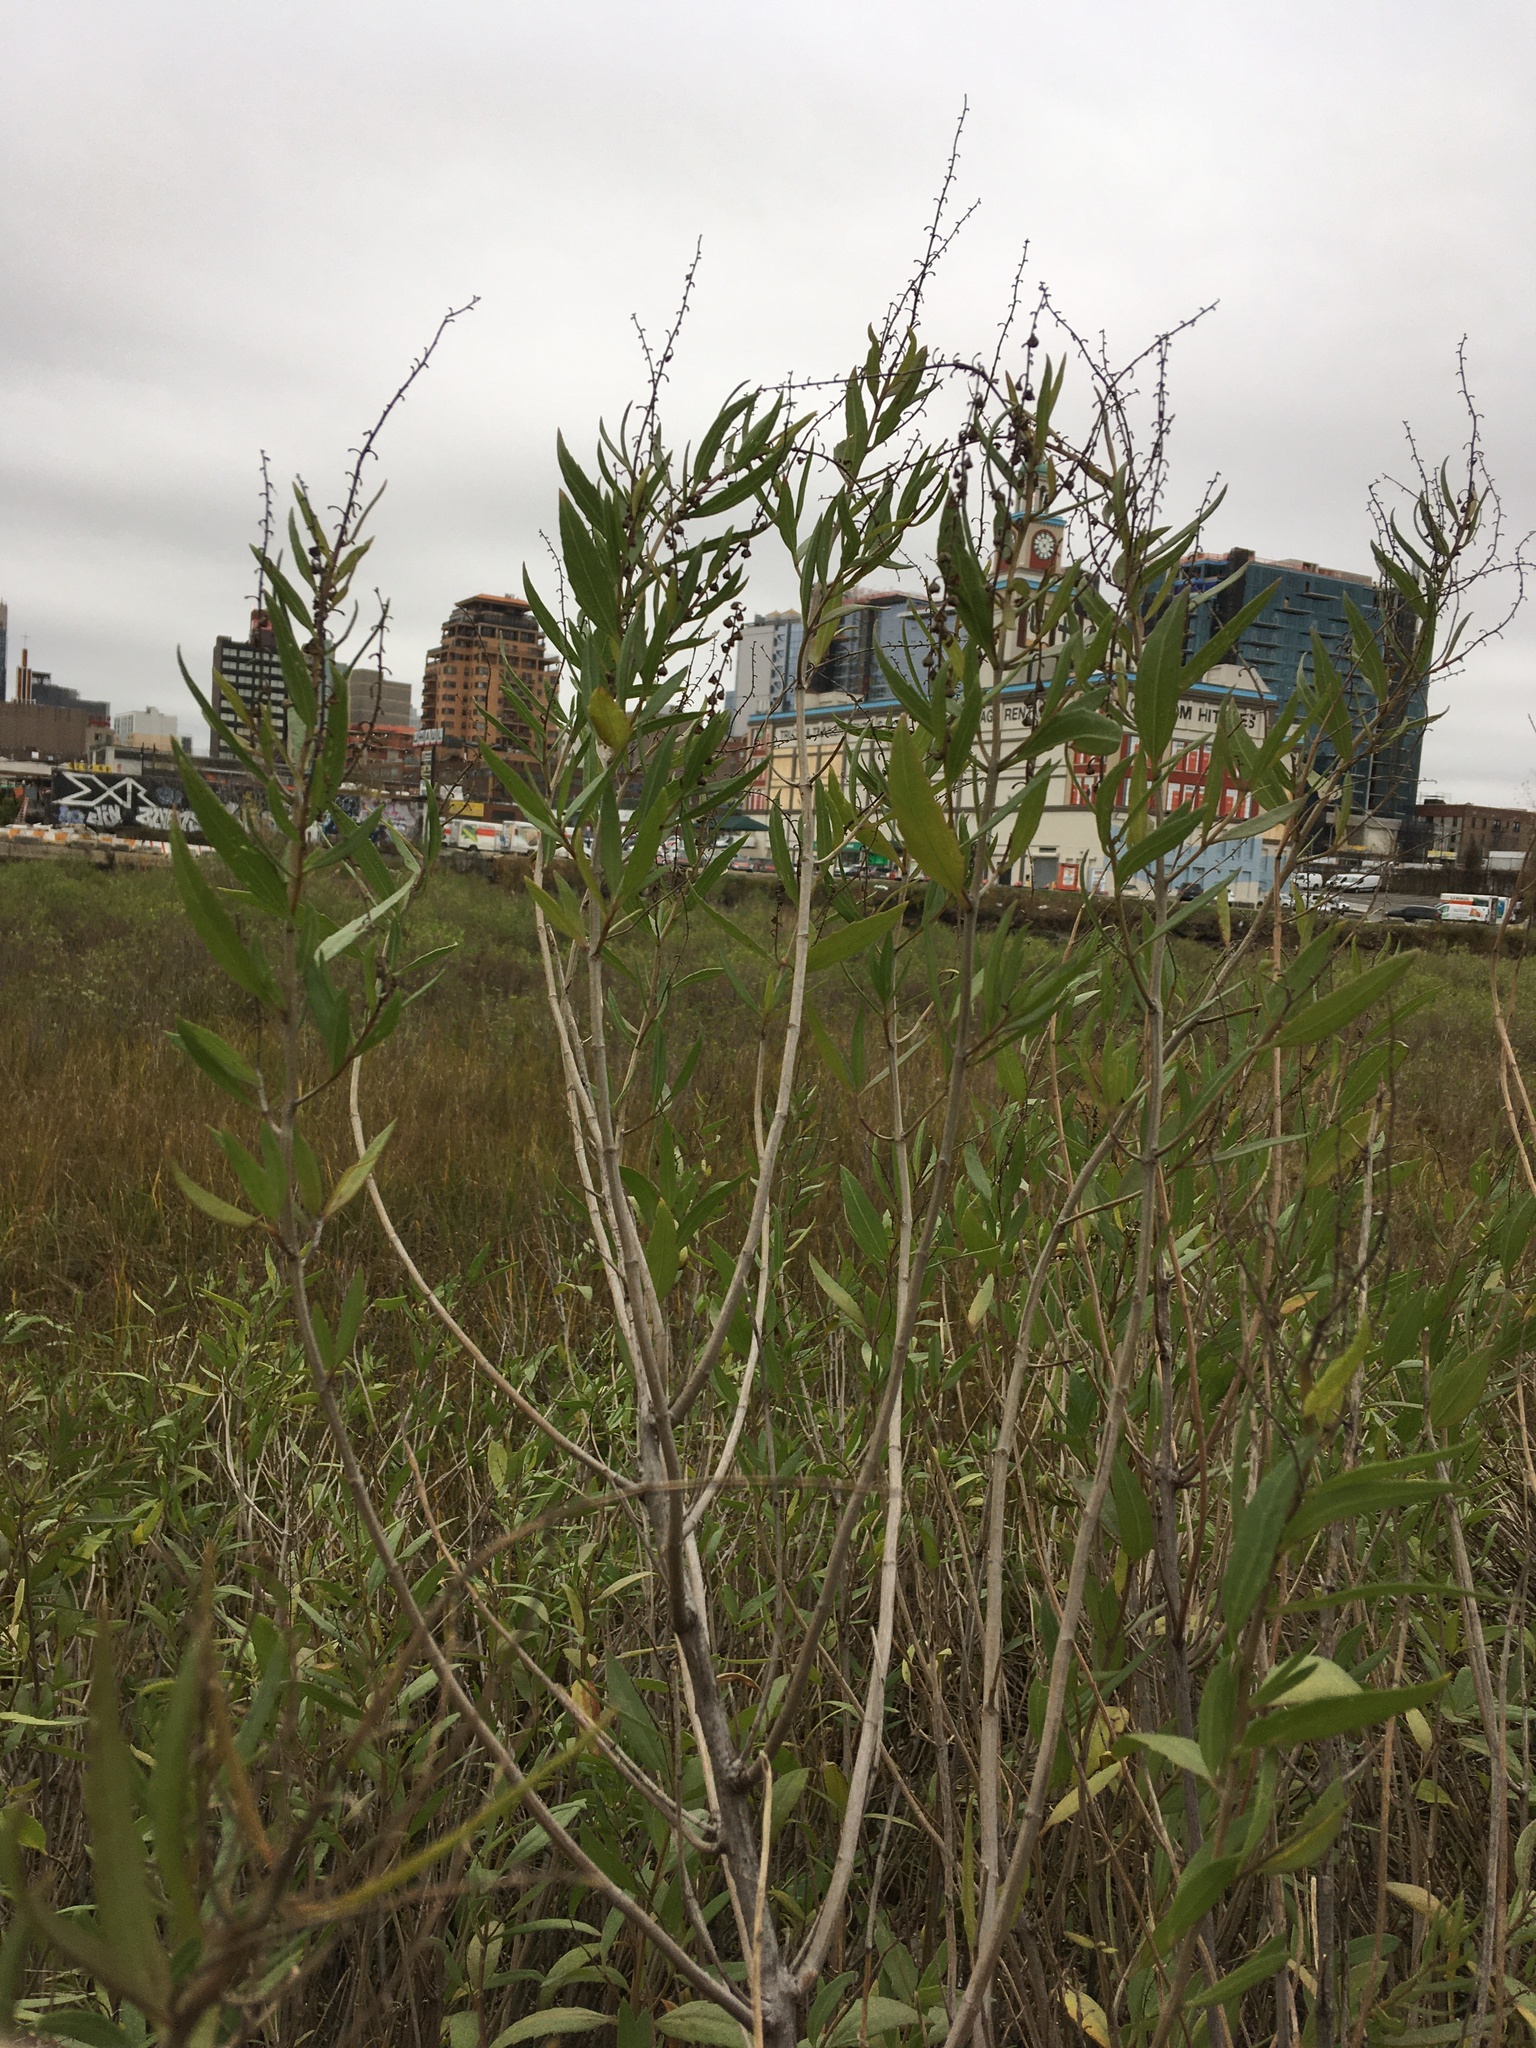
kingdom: Plantae
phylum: Tracheophyta
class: Magnoliopsida
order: Asterales
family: Asteraceae
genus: Iva
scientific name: Iva frutescens
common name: Big-leaved marsh-elder
